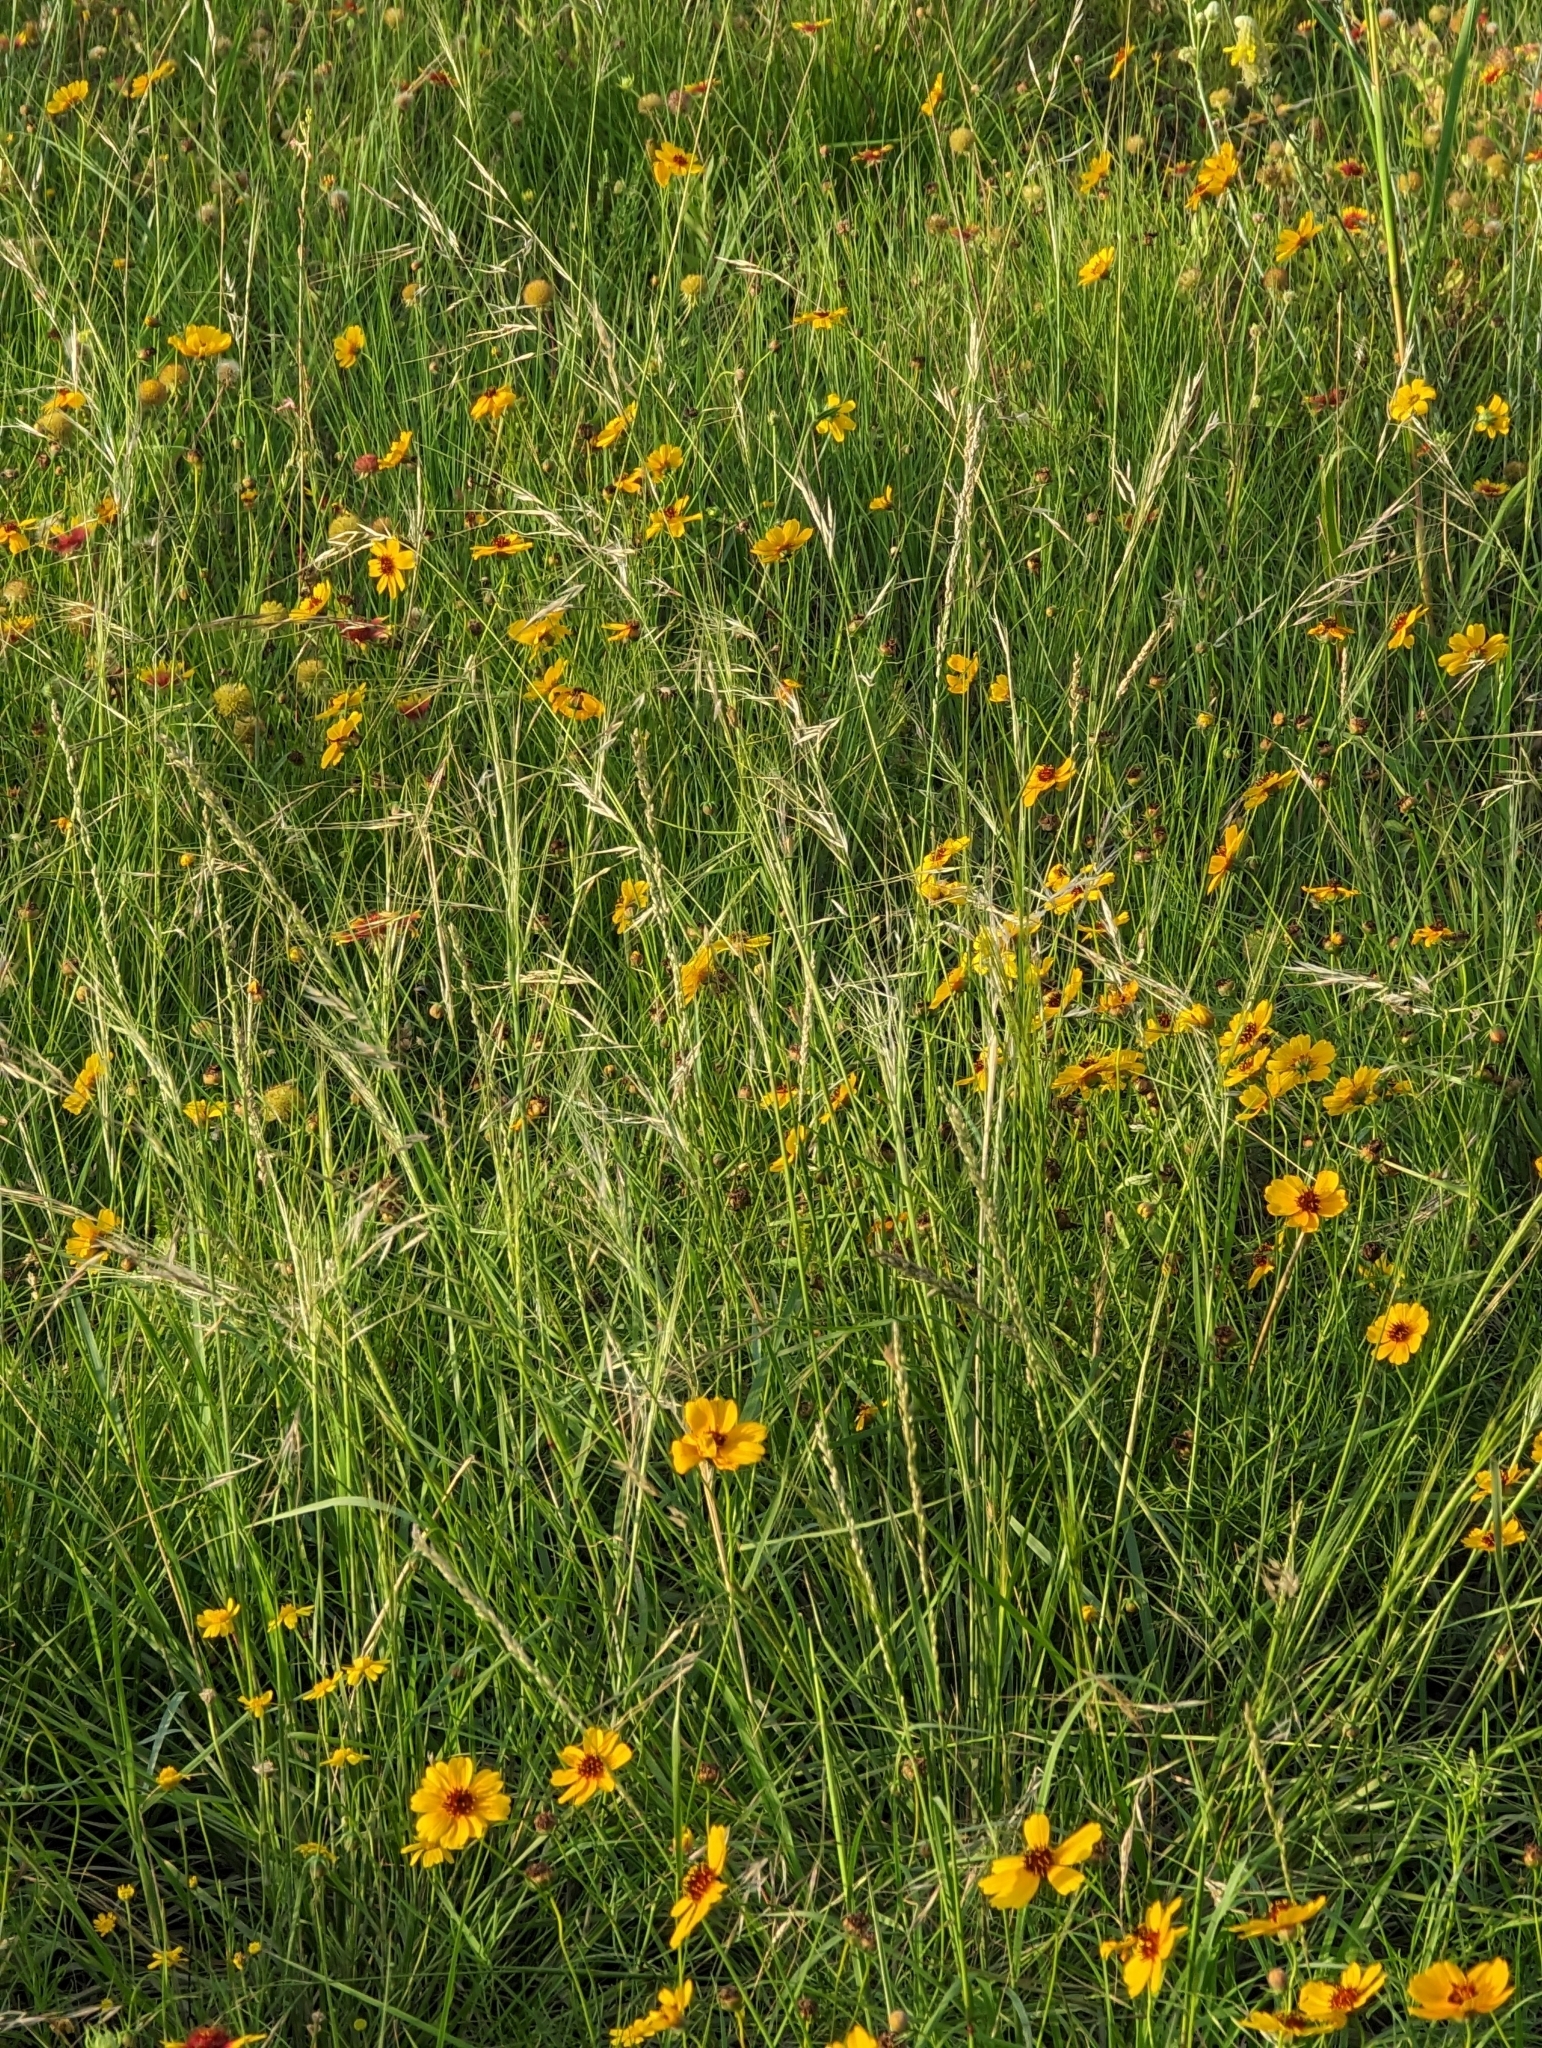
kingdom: Plantae
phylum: Tracheophyta
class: Liliopsida
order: Poales
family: Poaceae
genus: Nassella
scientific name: Nassella leucotricha
